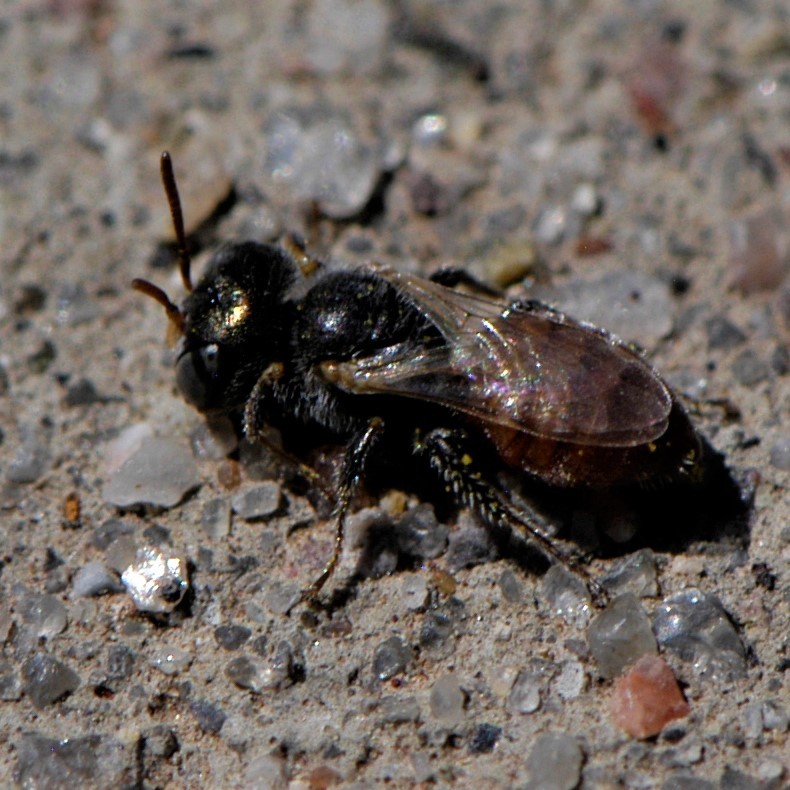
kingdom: Animalia
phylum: Arthropoda
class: Insecta
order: Hymenoptera
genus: Macroteropsis
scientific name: Macroteropsis
